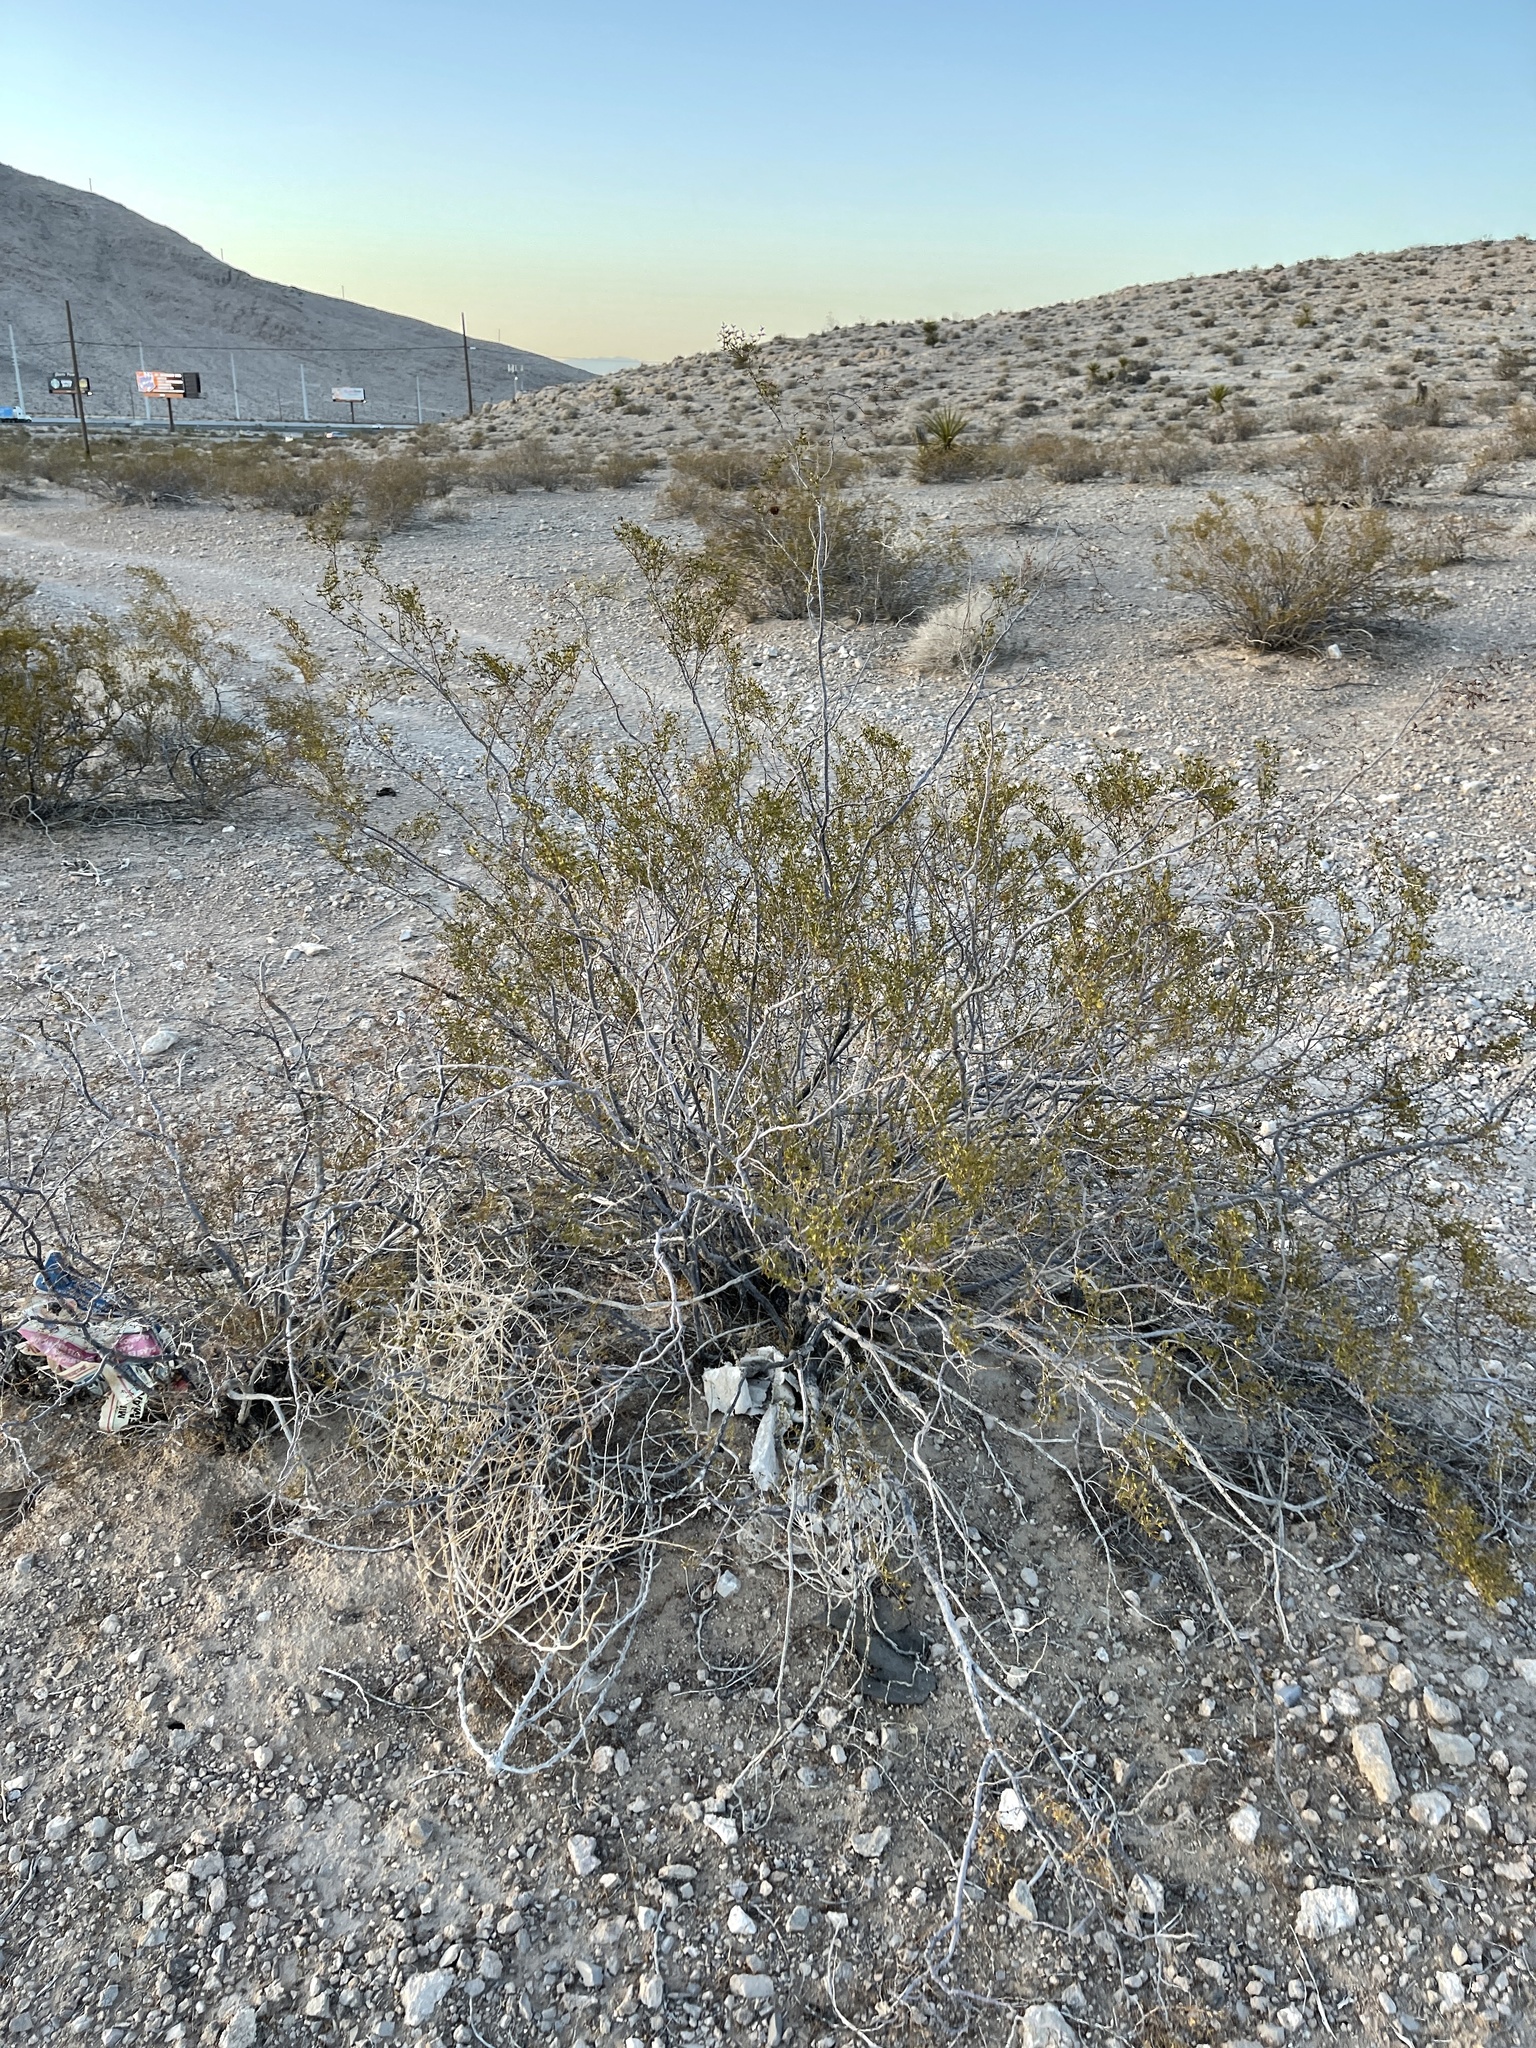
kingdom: Plantae
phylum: Tracheophyta
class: Magnoliopsida
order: Zygophyllales
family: Zygophyllaceae
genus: Larrea
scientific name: Larrea tridentata
